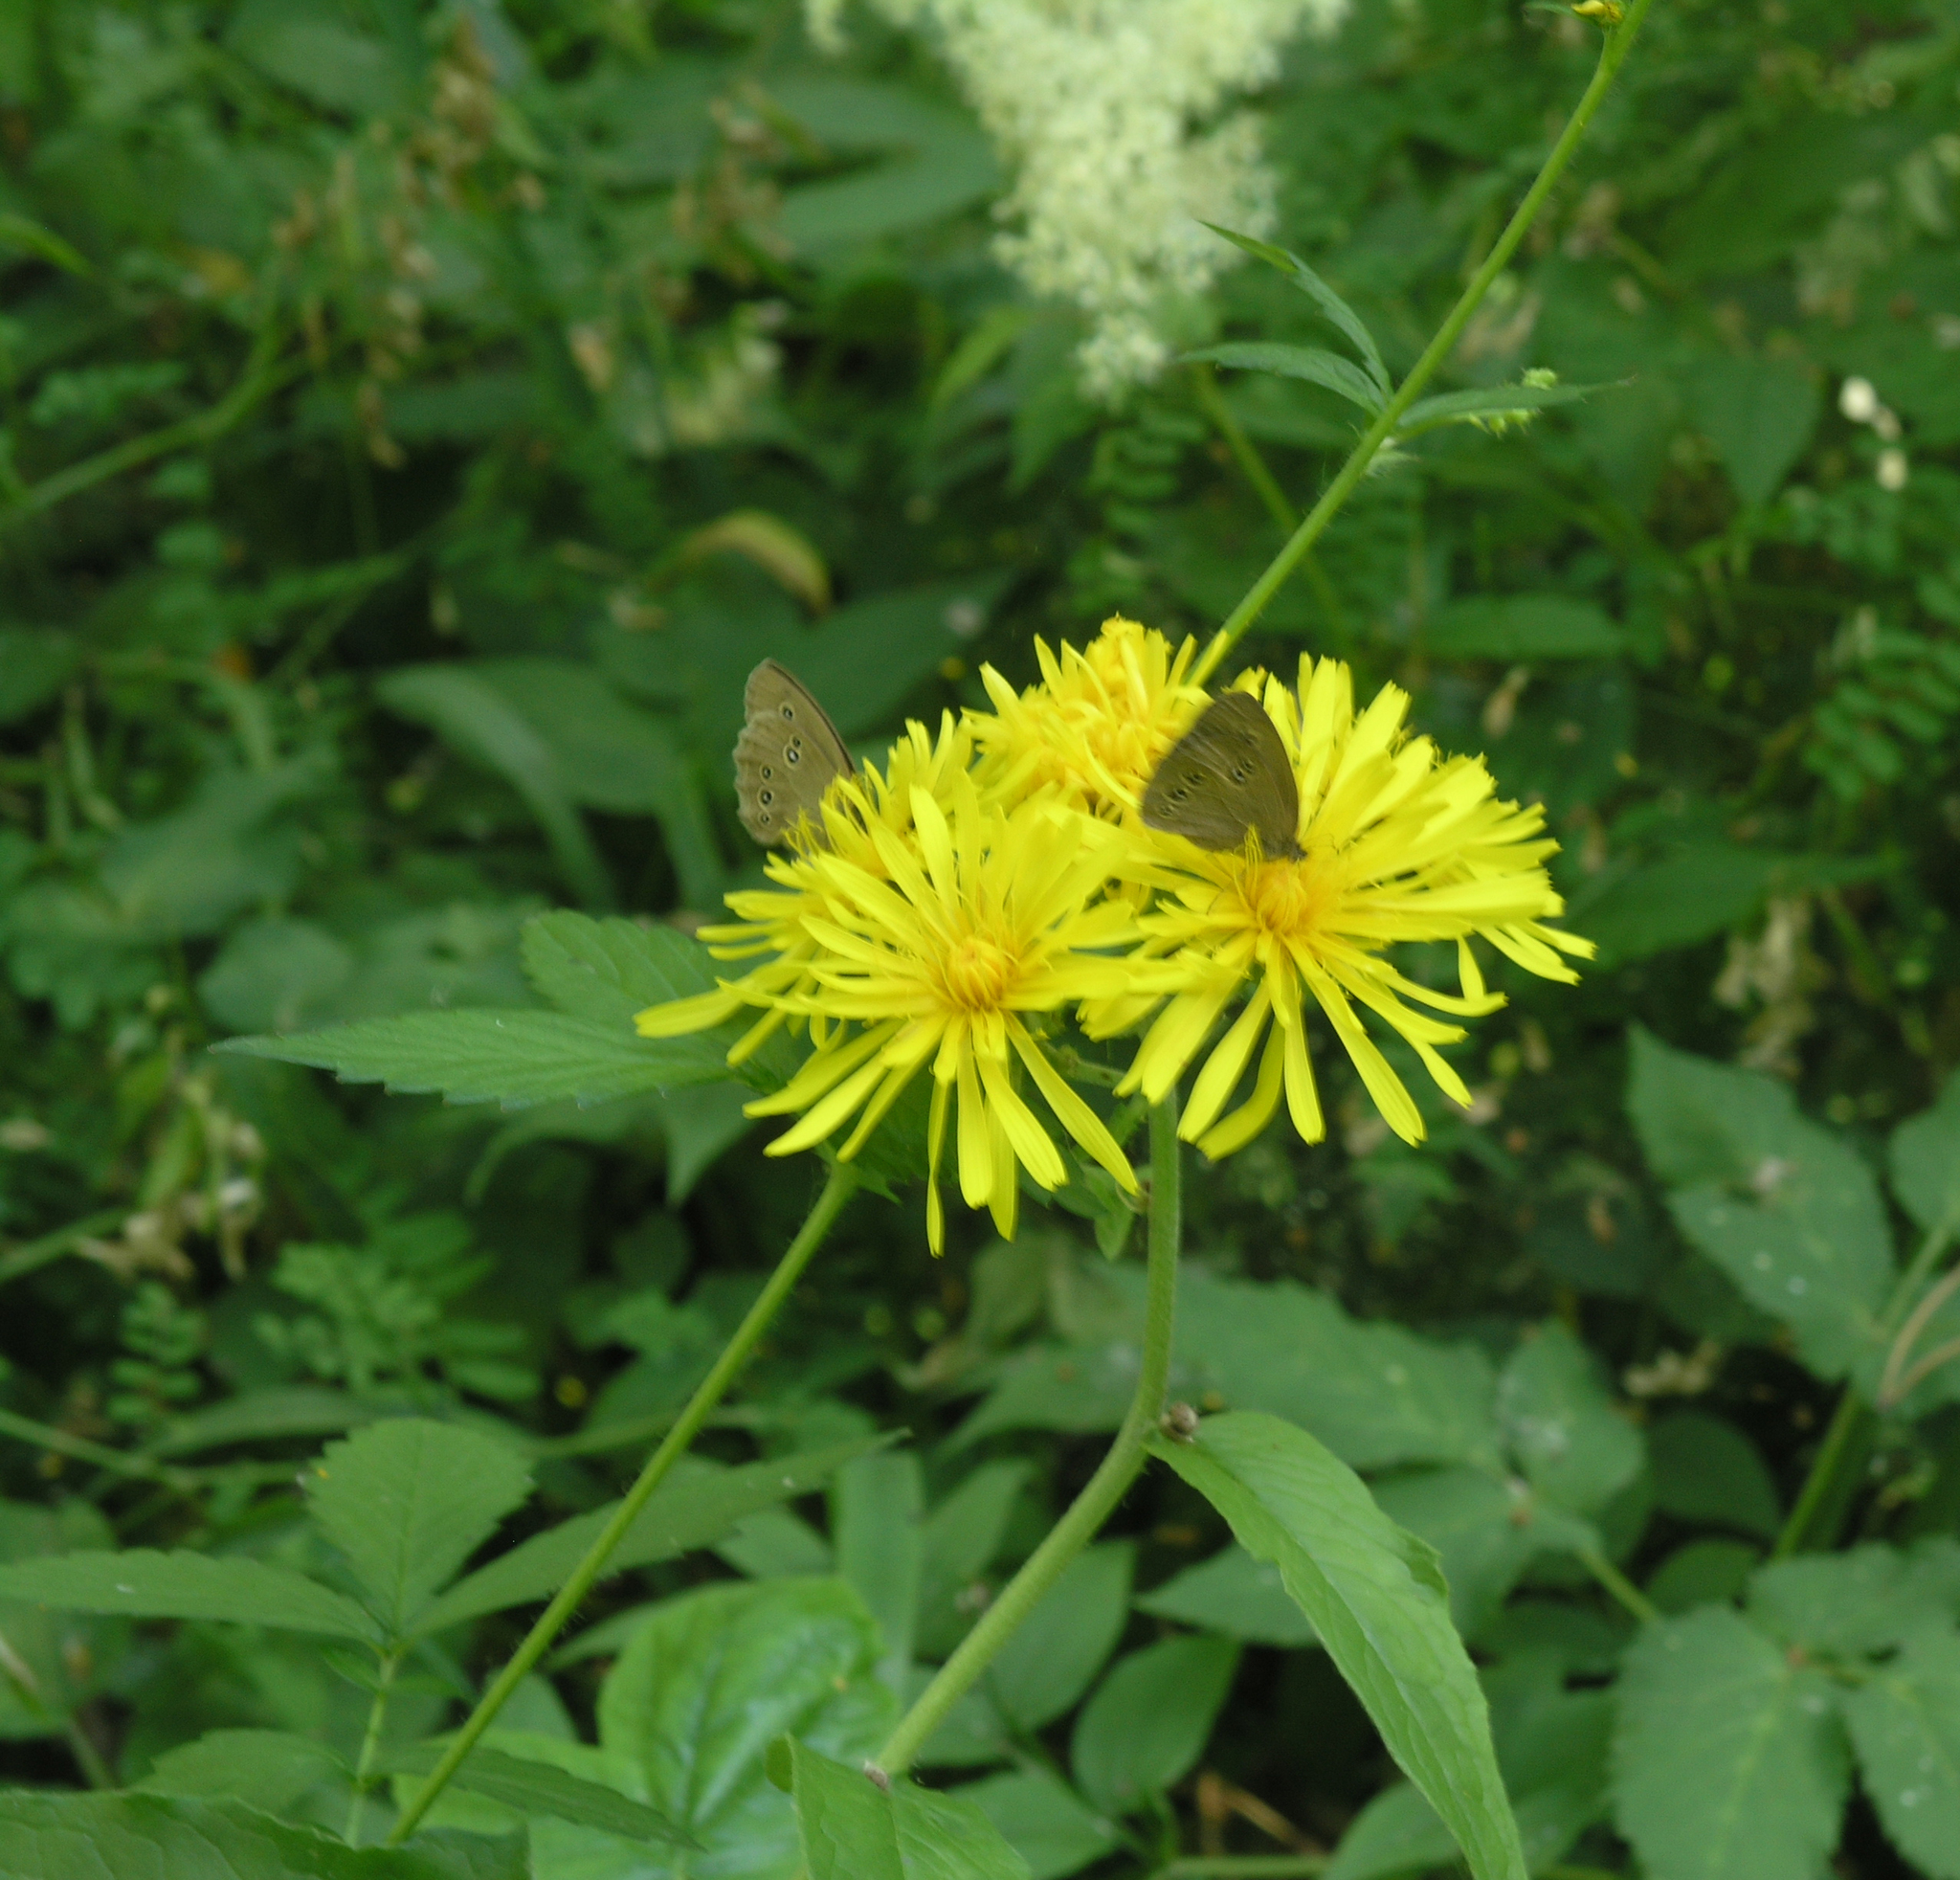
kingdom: Plantae
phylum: Tracheophyta
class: Magnoliopsida
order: Asterales
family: Asteraceae
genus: Crepis
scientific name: Crepis sibirica
